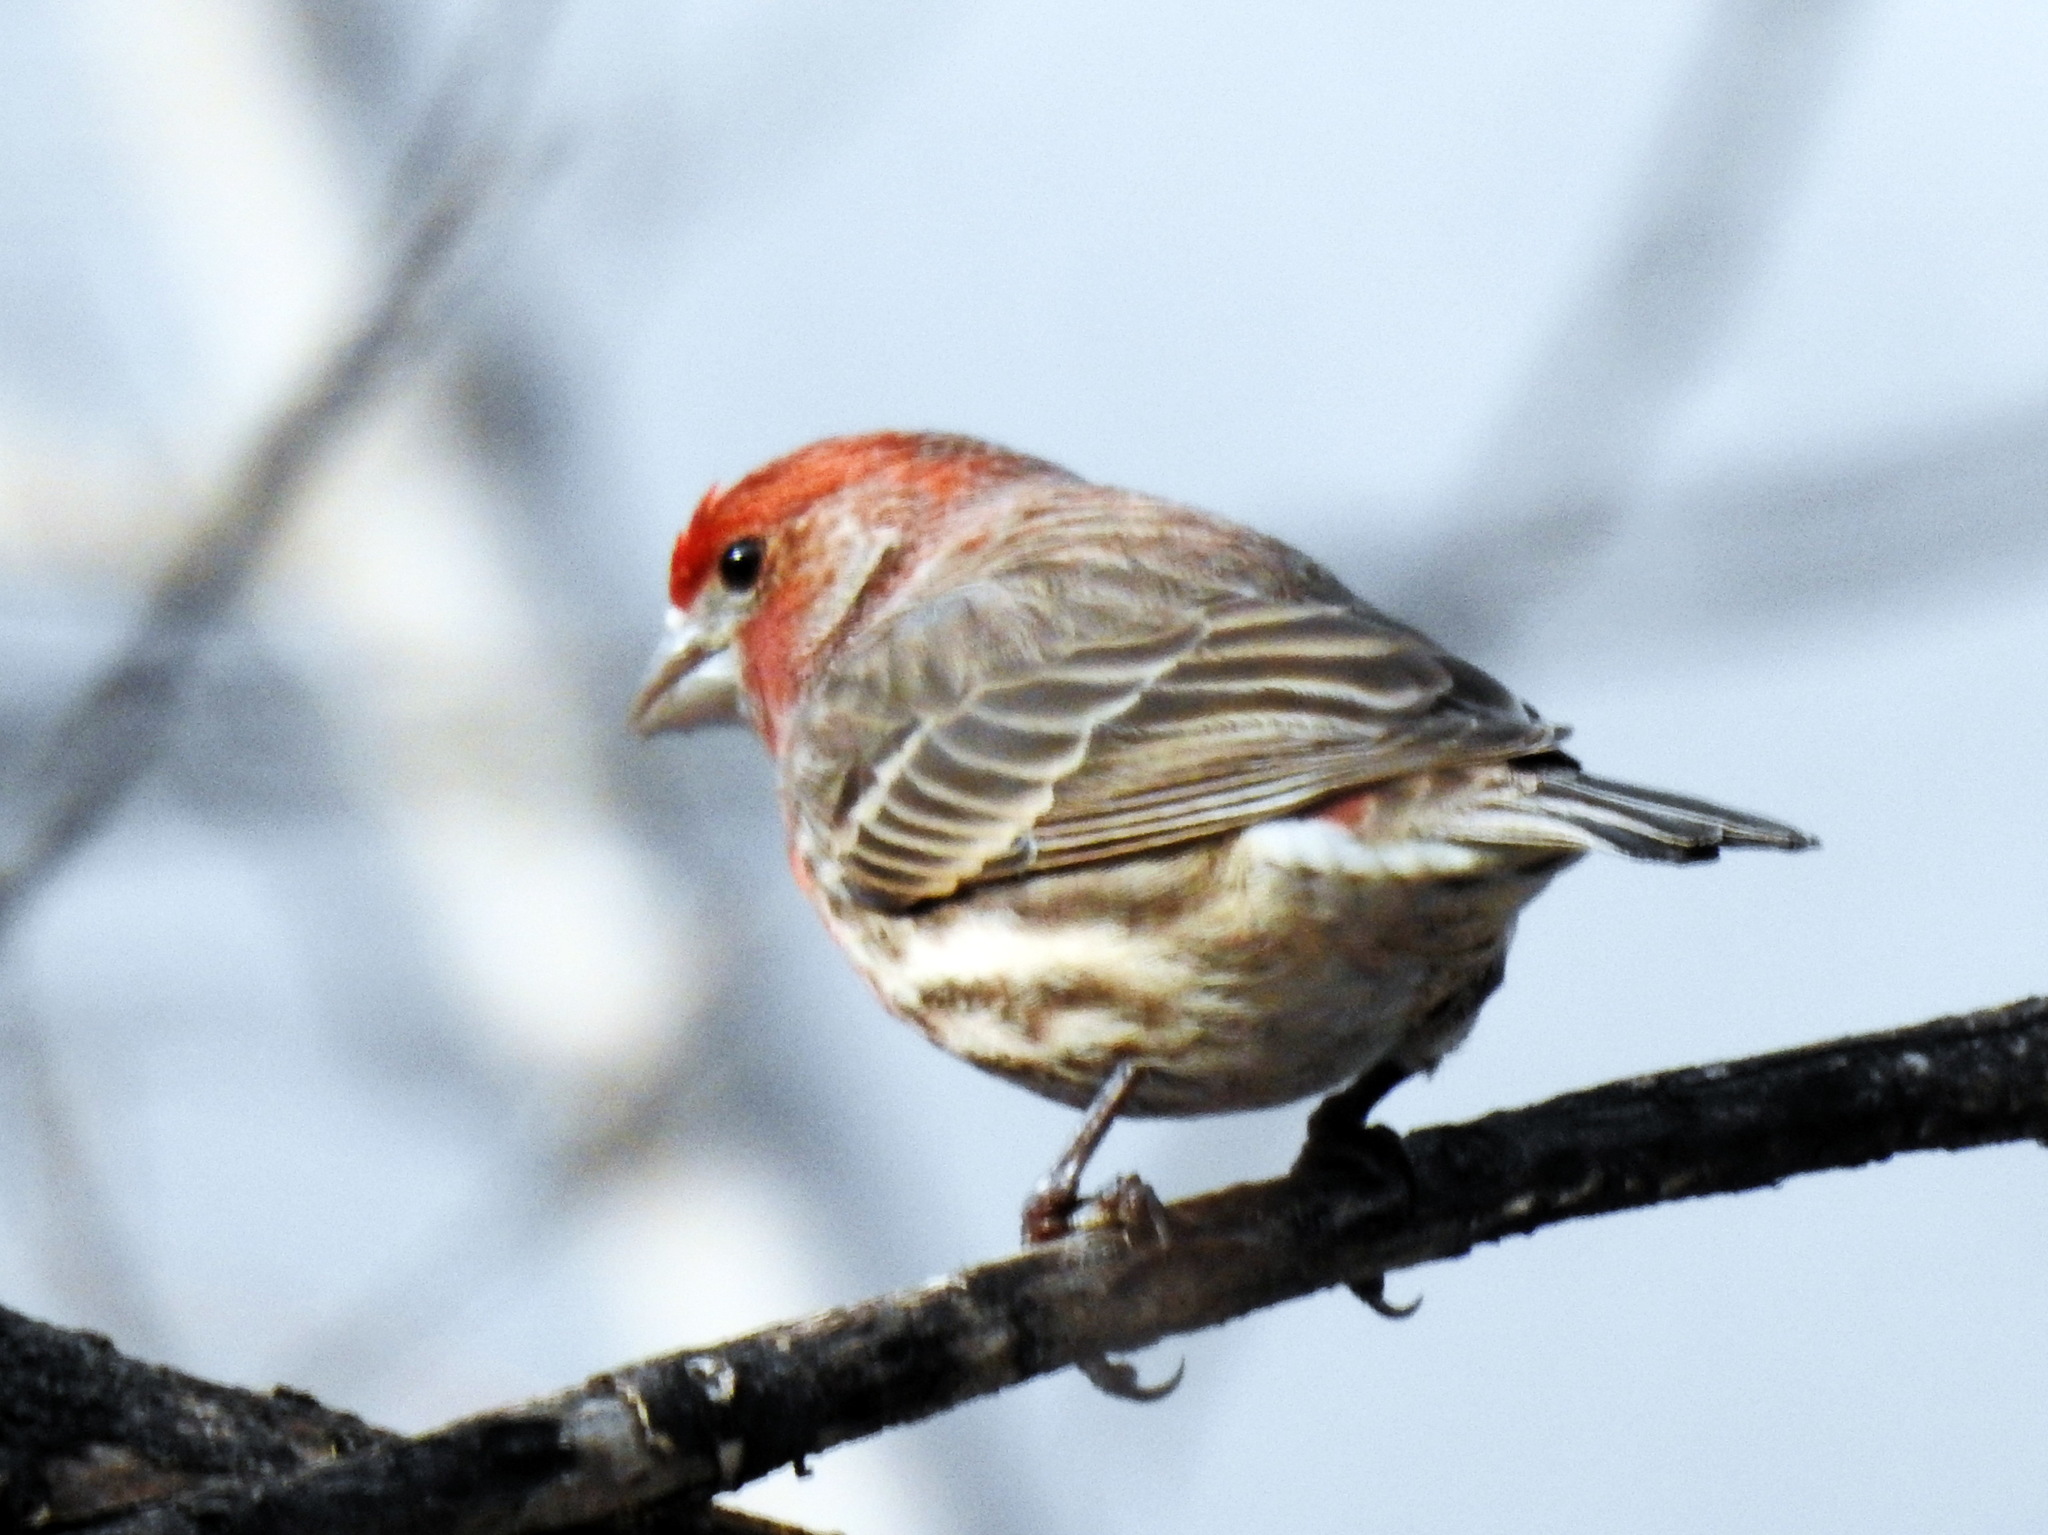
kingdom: Animalia
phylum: Chordata
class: Aves
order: Passeriformes
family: Fringillidae
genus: Haemorhous
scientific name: Haemorhous mexicanus
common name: House finch
